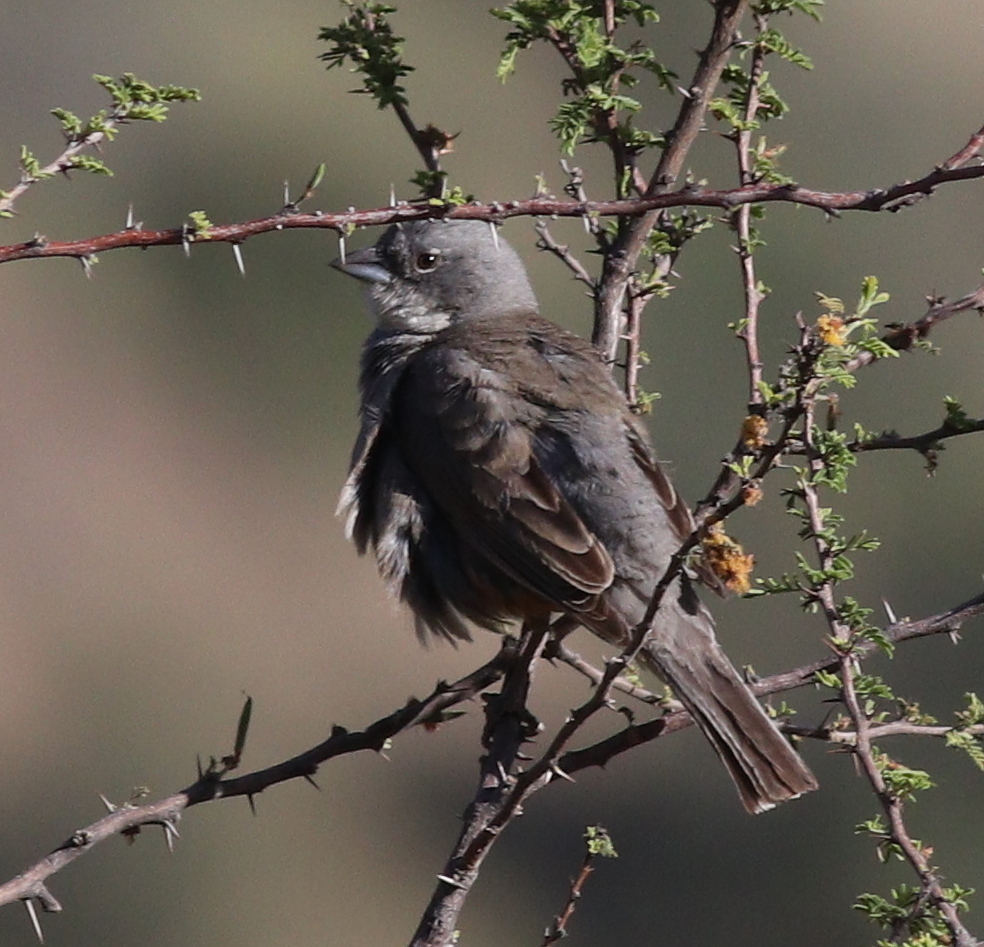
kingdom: Animalia
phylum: Chordata
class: Aves
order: Passeriformes
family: Thraupidae
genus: Diuca
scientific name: Diuca diuca
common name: Common diuca finch
